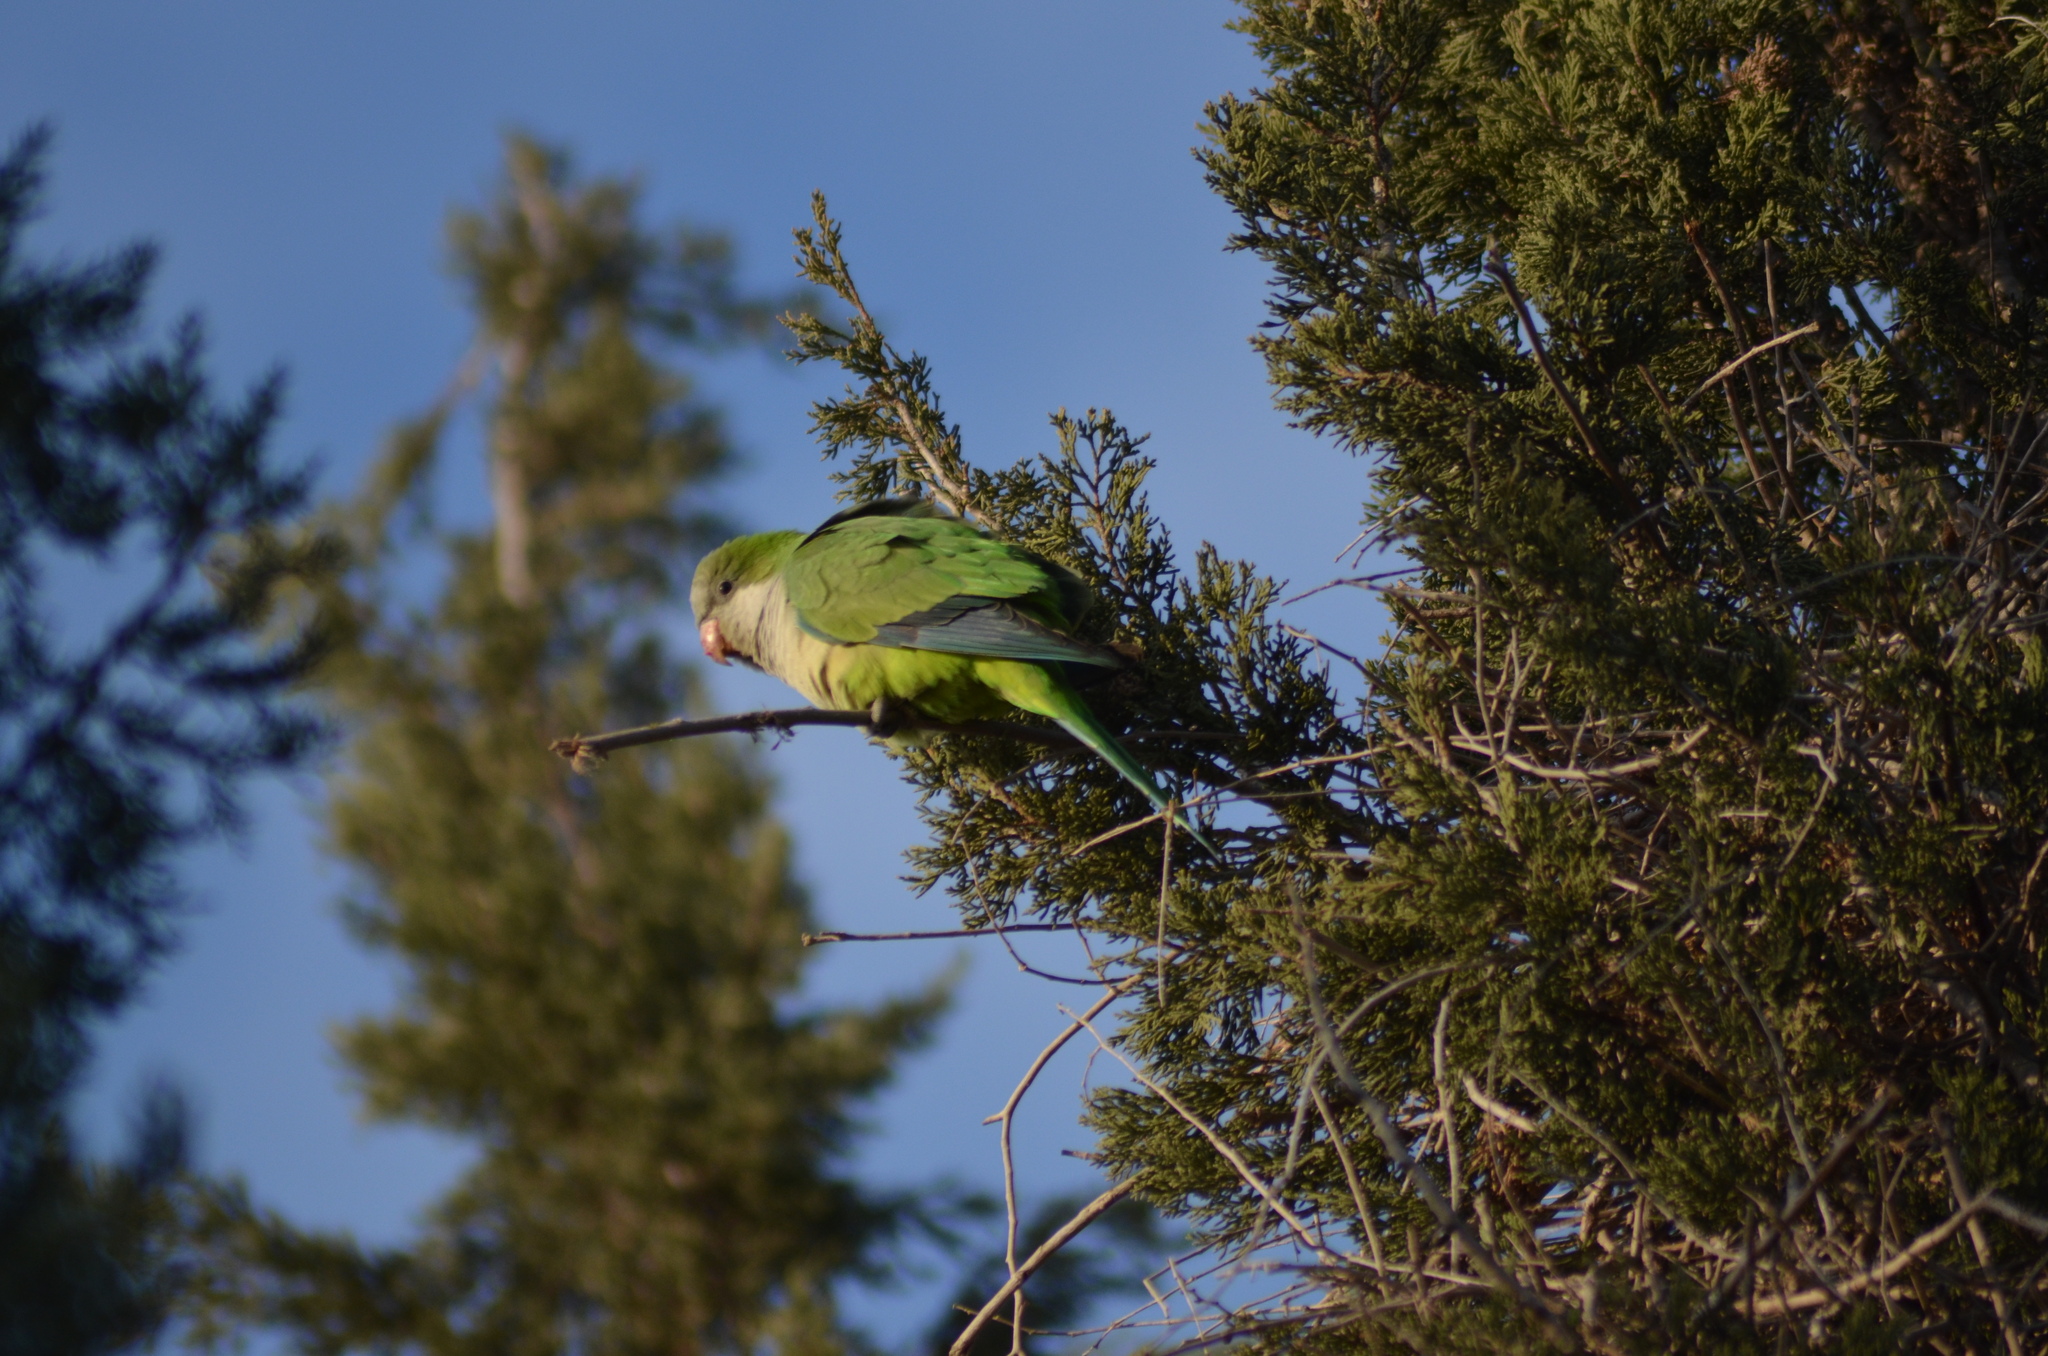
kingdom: Animalia
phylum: Chordata
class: Aves
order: Psittaciformes
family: Psittacidae
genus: Myiopsitta
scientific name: Myiopsitta monachus
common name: Monk parakeet
